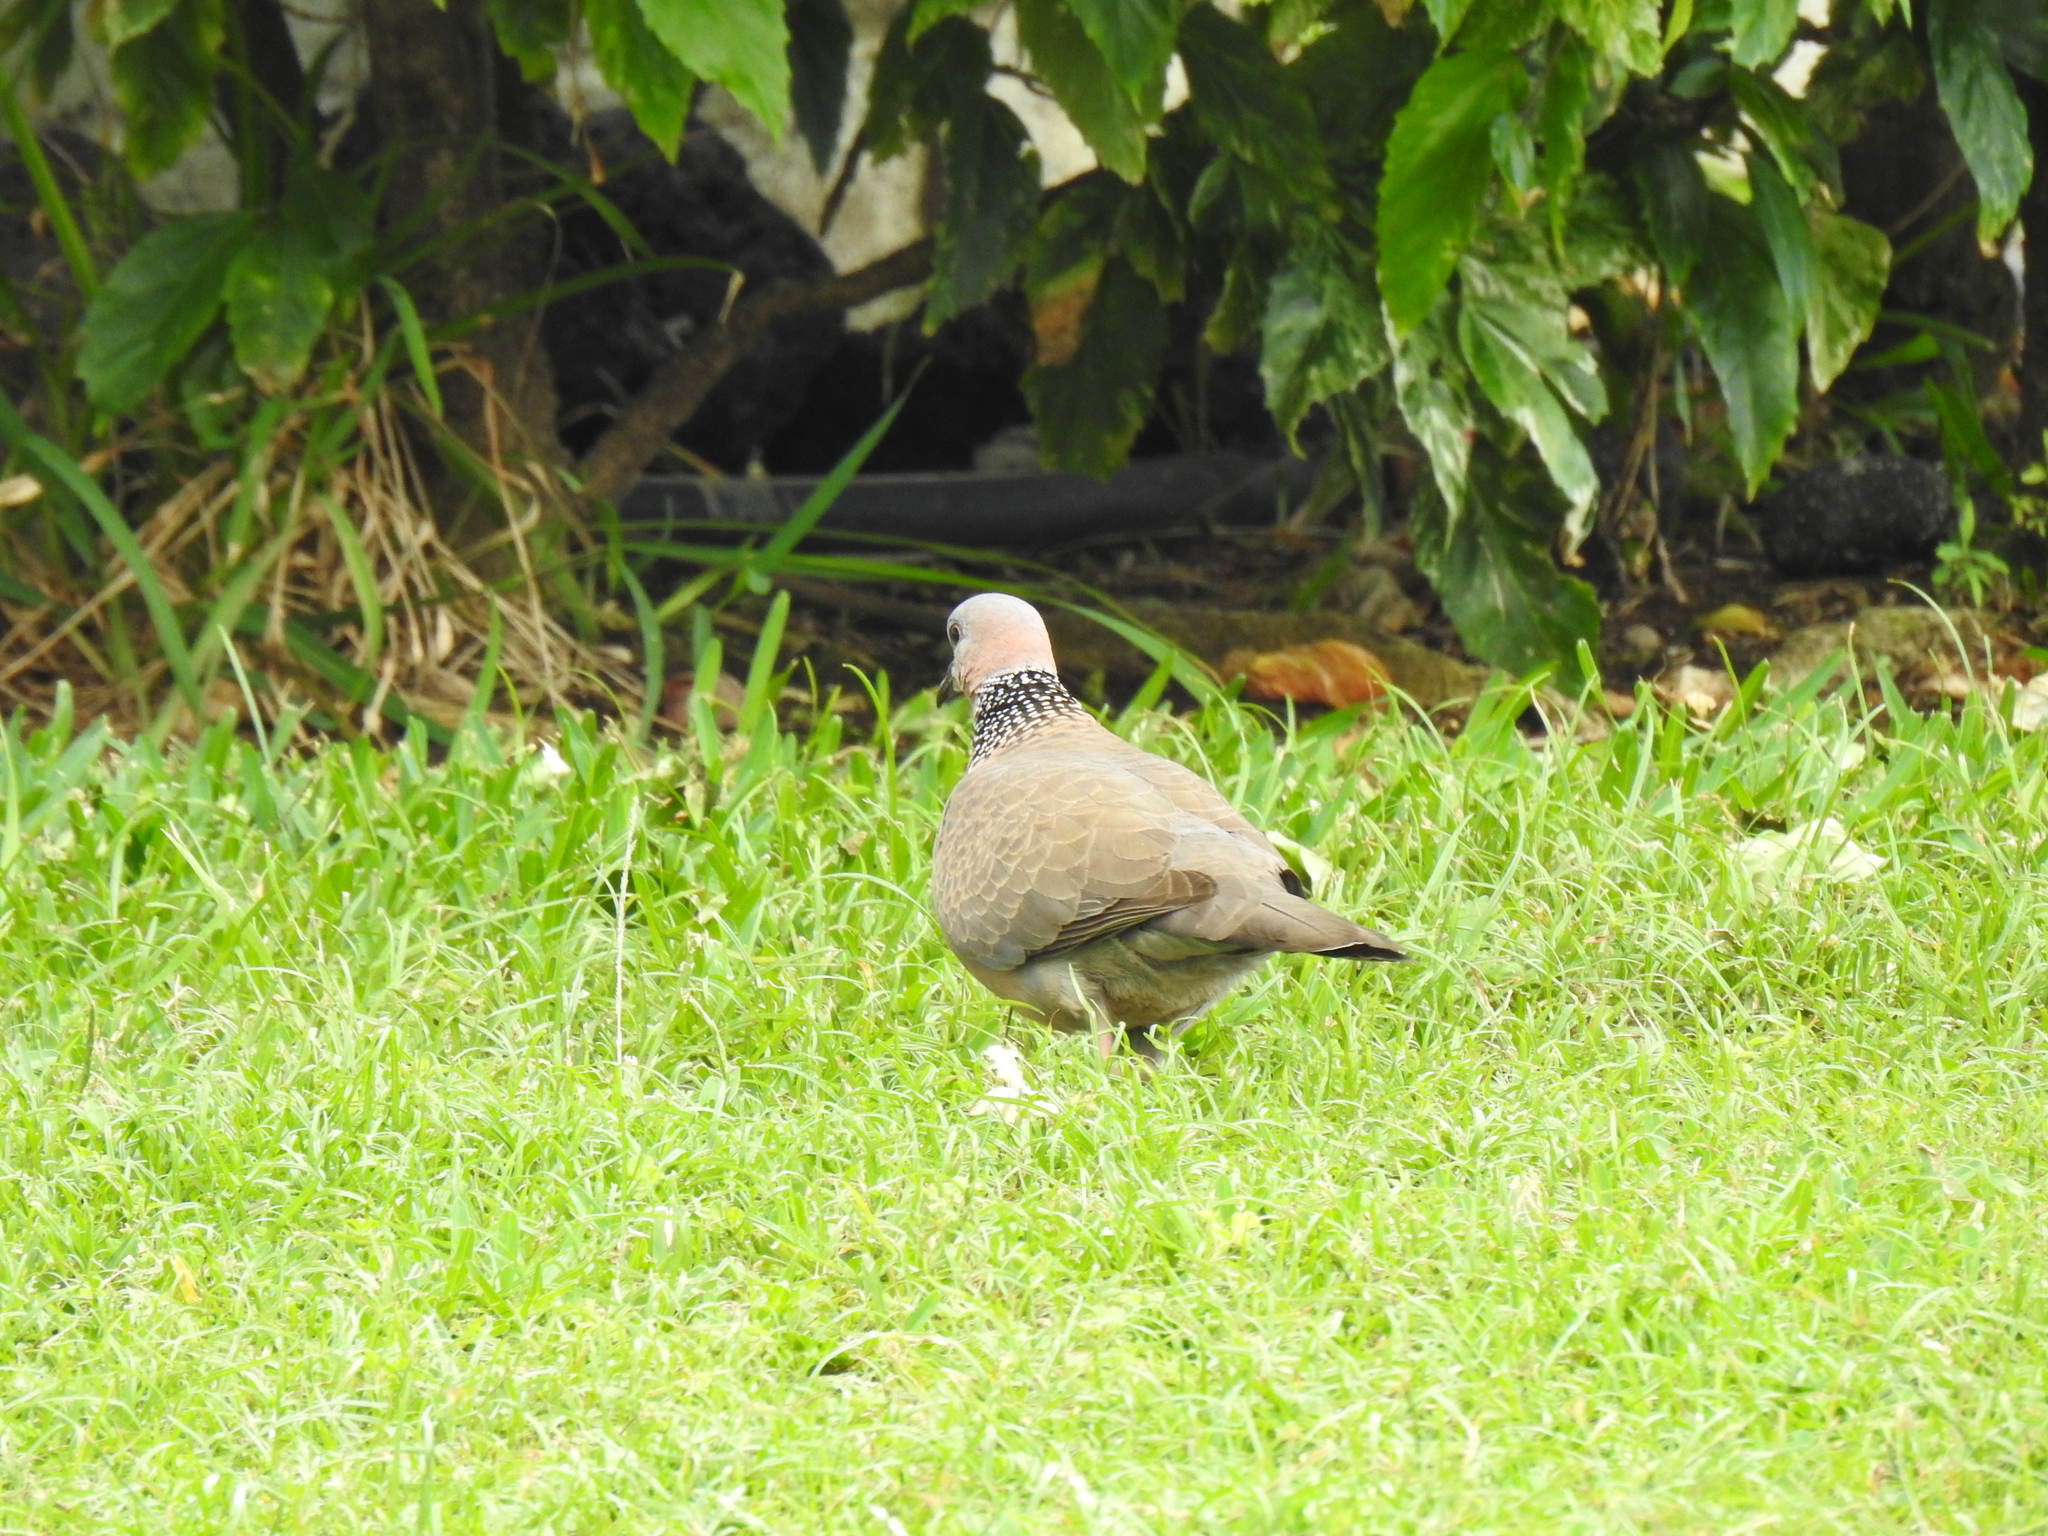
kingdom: Animalia
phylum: Chordata
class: Aves
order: Columbiformes
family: Columbidae
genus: Spilopelia
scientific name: Spilopelia chinensis
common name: Spotted dove
